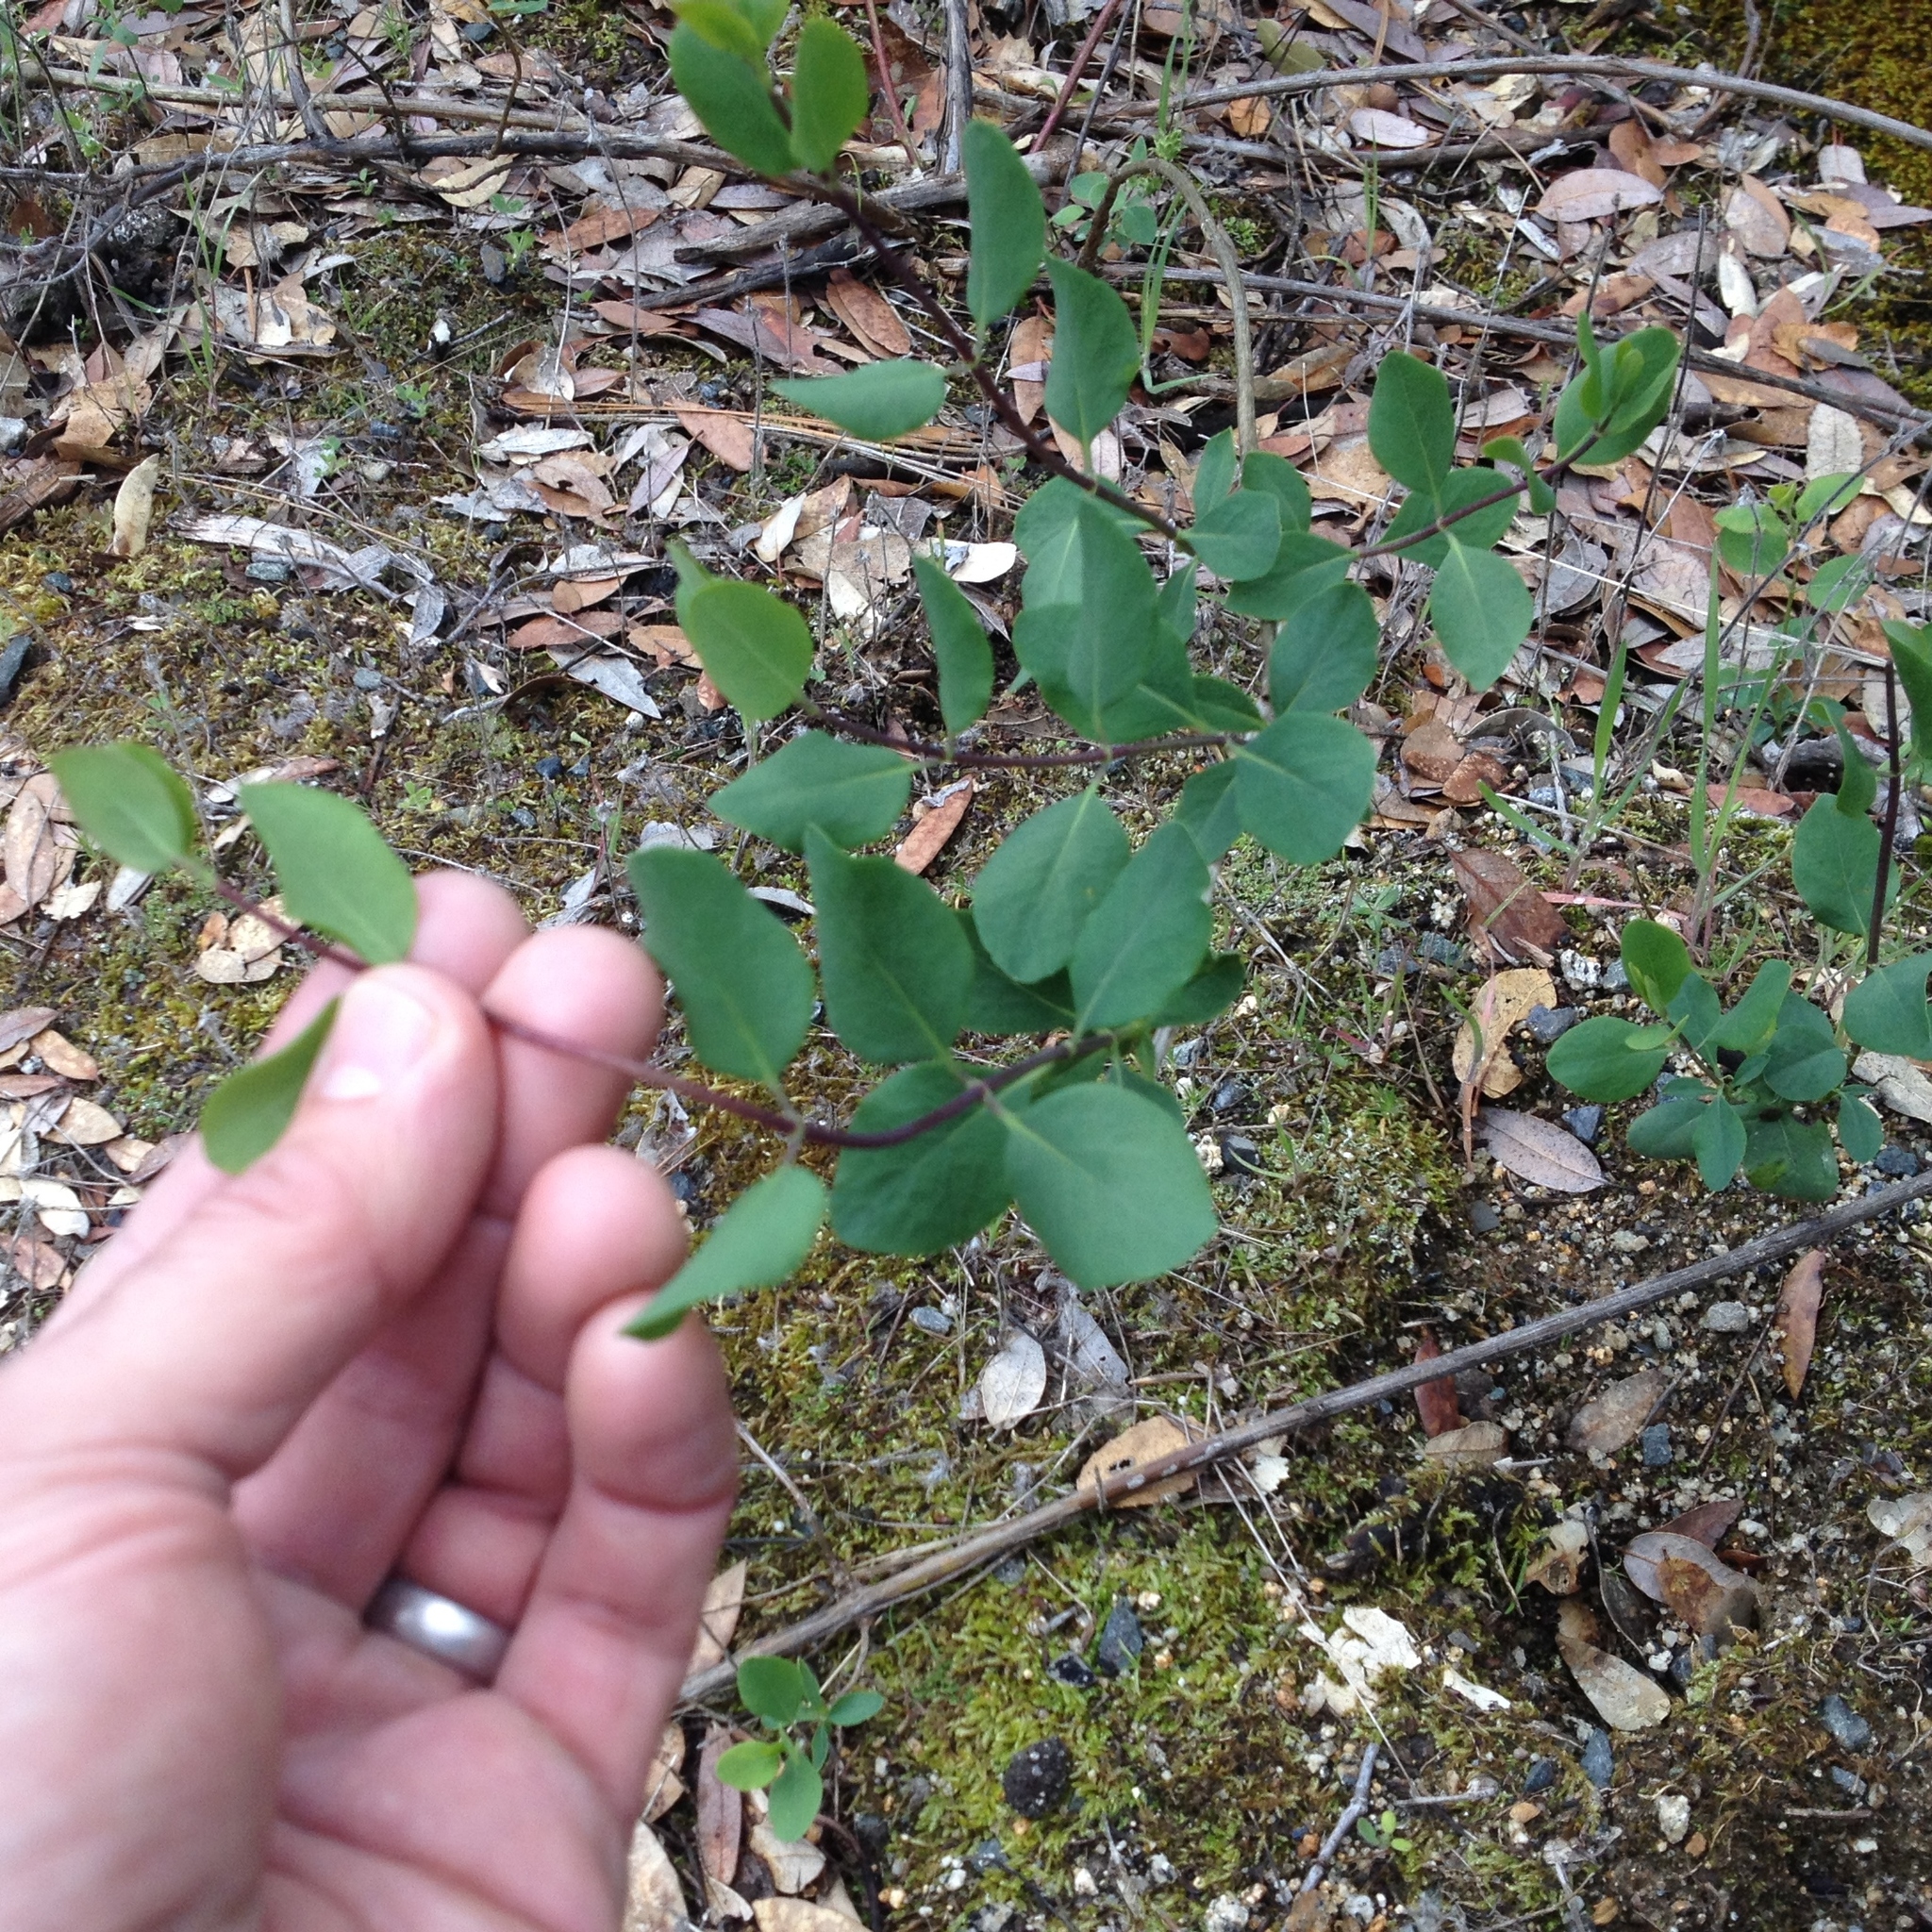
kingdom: Plantae
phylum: Tracheophyta
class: Magnoliopsida
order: Dipsacales
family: Caprifoliaceae
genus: Lonicera
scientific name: Lonicera hispidula
